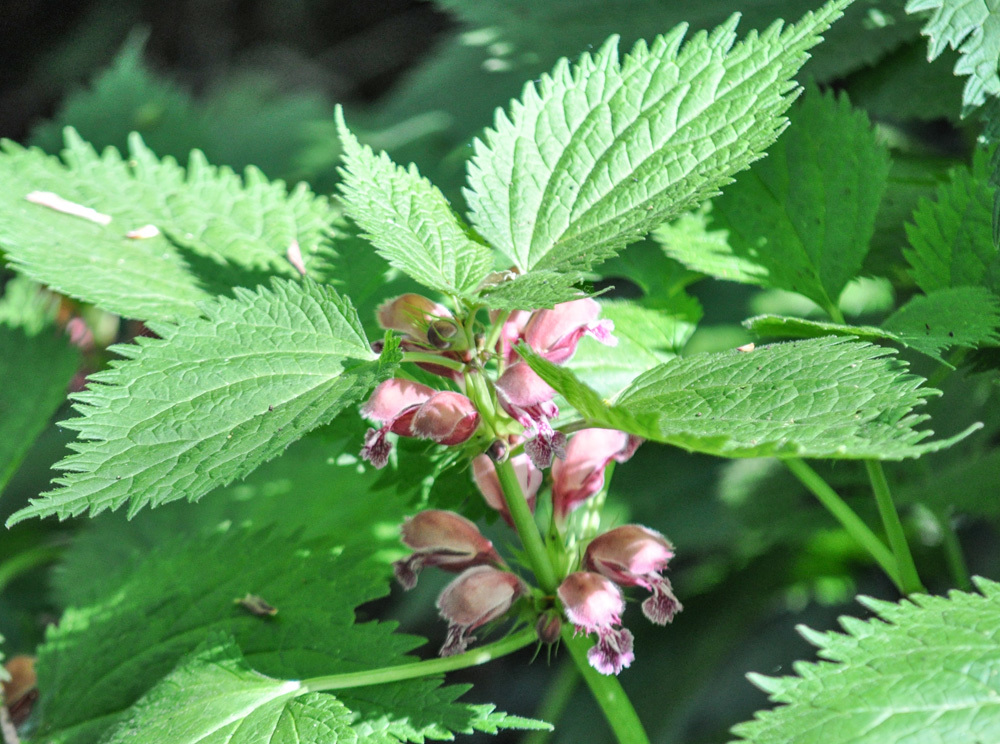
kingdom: Plantae
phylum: Tracheophyta
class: Magnoliopsida
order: Lamiales
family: Lamiaceae
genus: Lamium
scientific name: Lamium orvala
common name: Balm-leaved archangel
